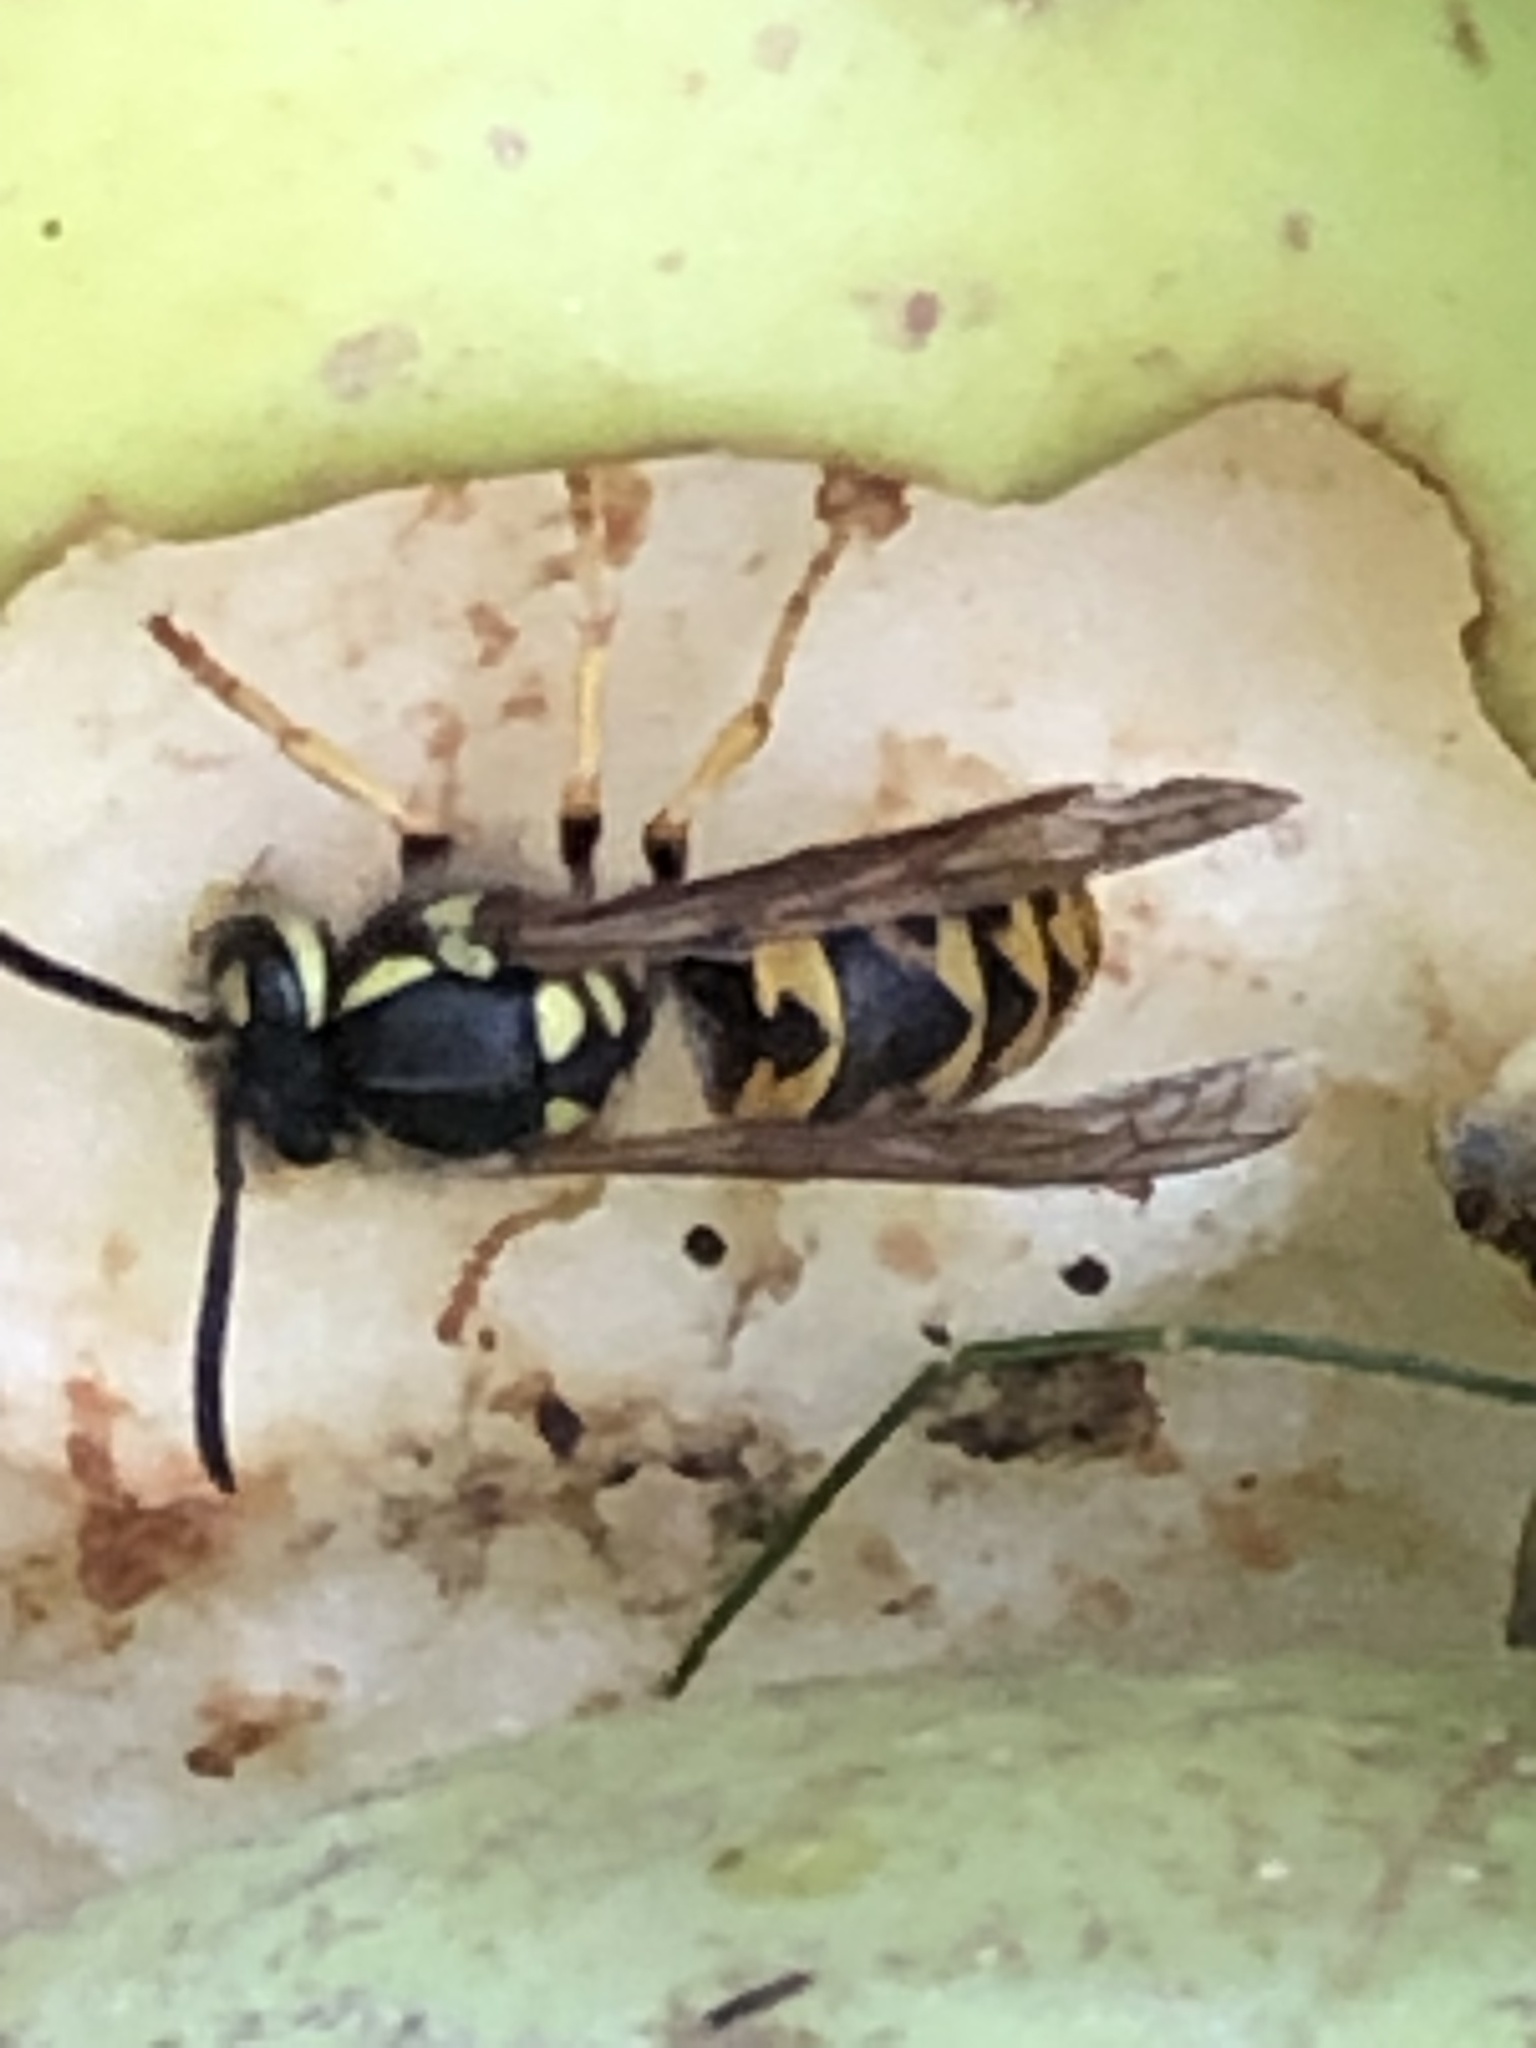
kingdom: Animalia
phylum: Arthropoda
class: Insecta
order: Hymenoptera
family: Vespidae
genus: Vespula
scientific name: Vespula germanica
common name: German wasp
